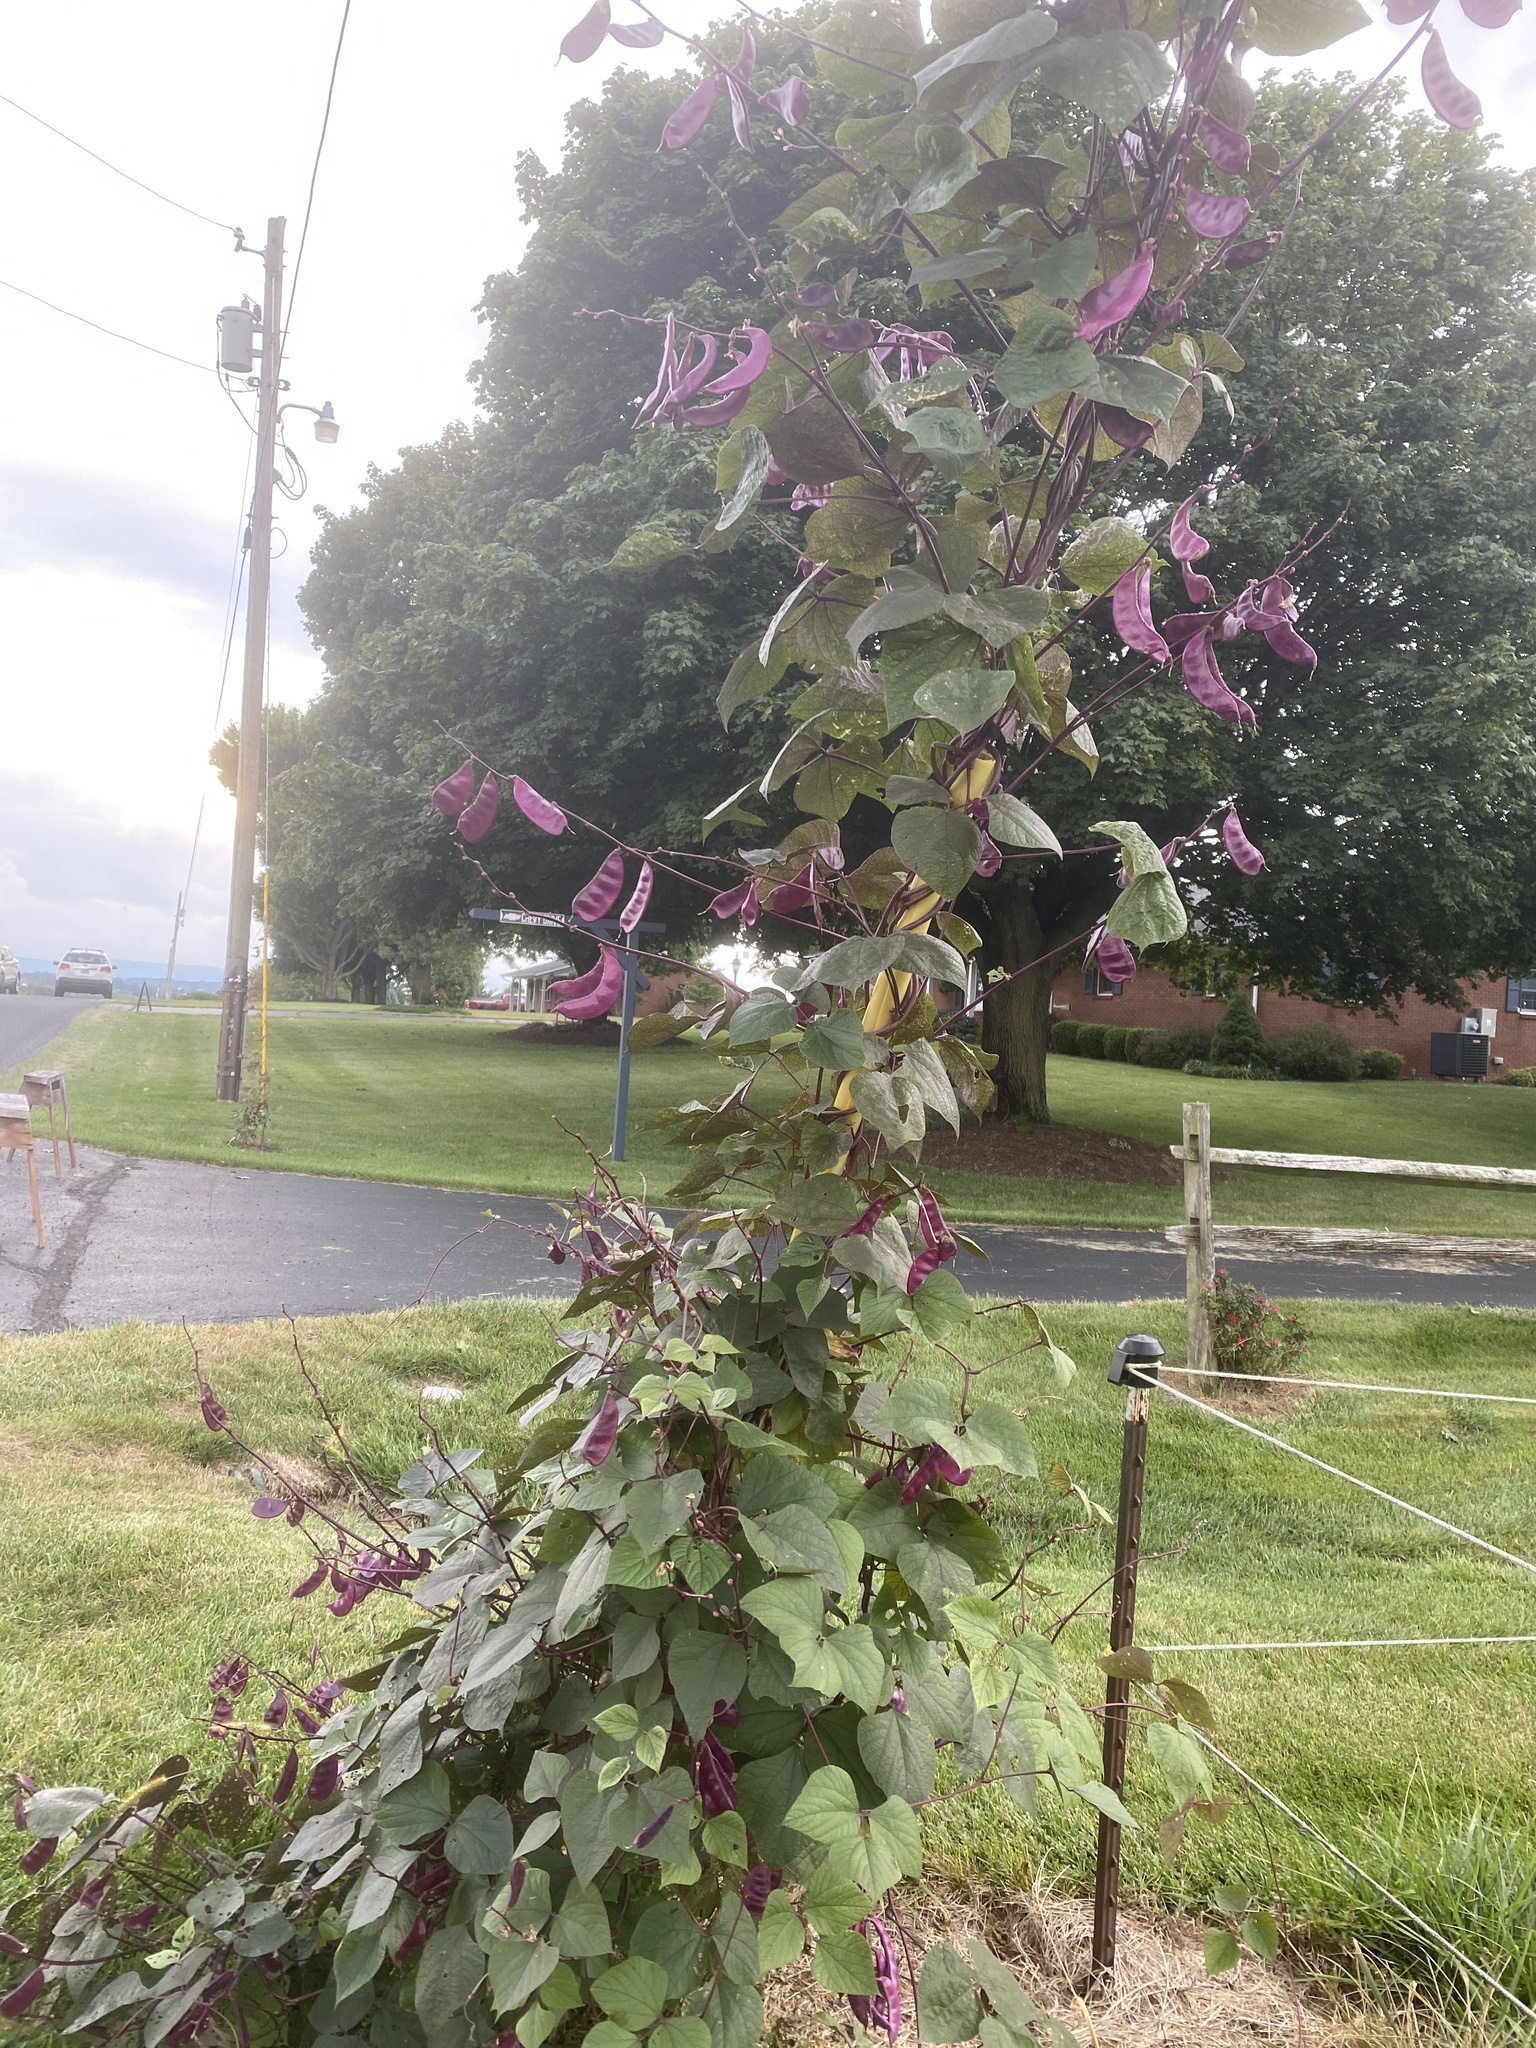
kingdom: Plantae
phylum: Tracheophyta
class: Magnoliopsida
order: Fabales
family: Fabaceae
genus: Lablab
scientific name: Lablab purpureus
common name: Lablab-bean
